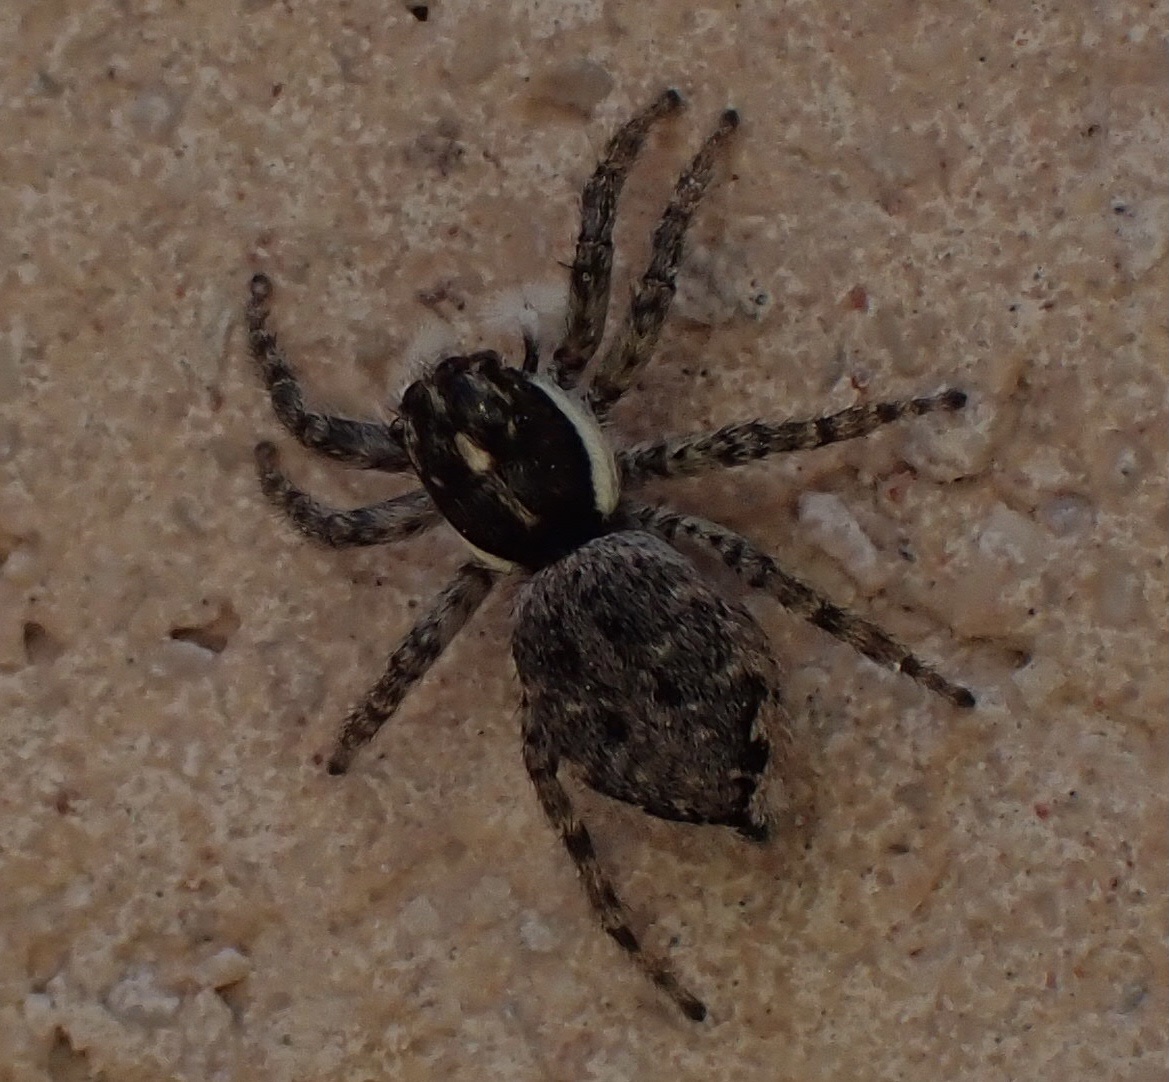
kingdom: Animalia
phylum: Arthropoda
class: Arachnida
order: Araneae
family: Salticidae
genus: Menemerus
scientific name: Menemerus semilimbatus
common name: Jumping spider
